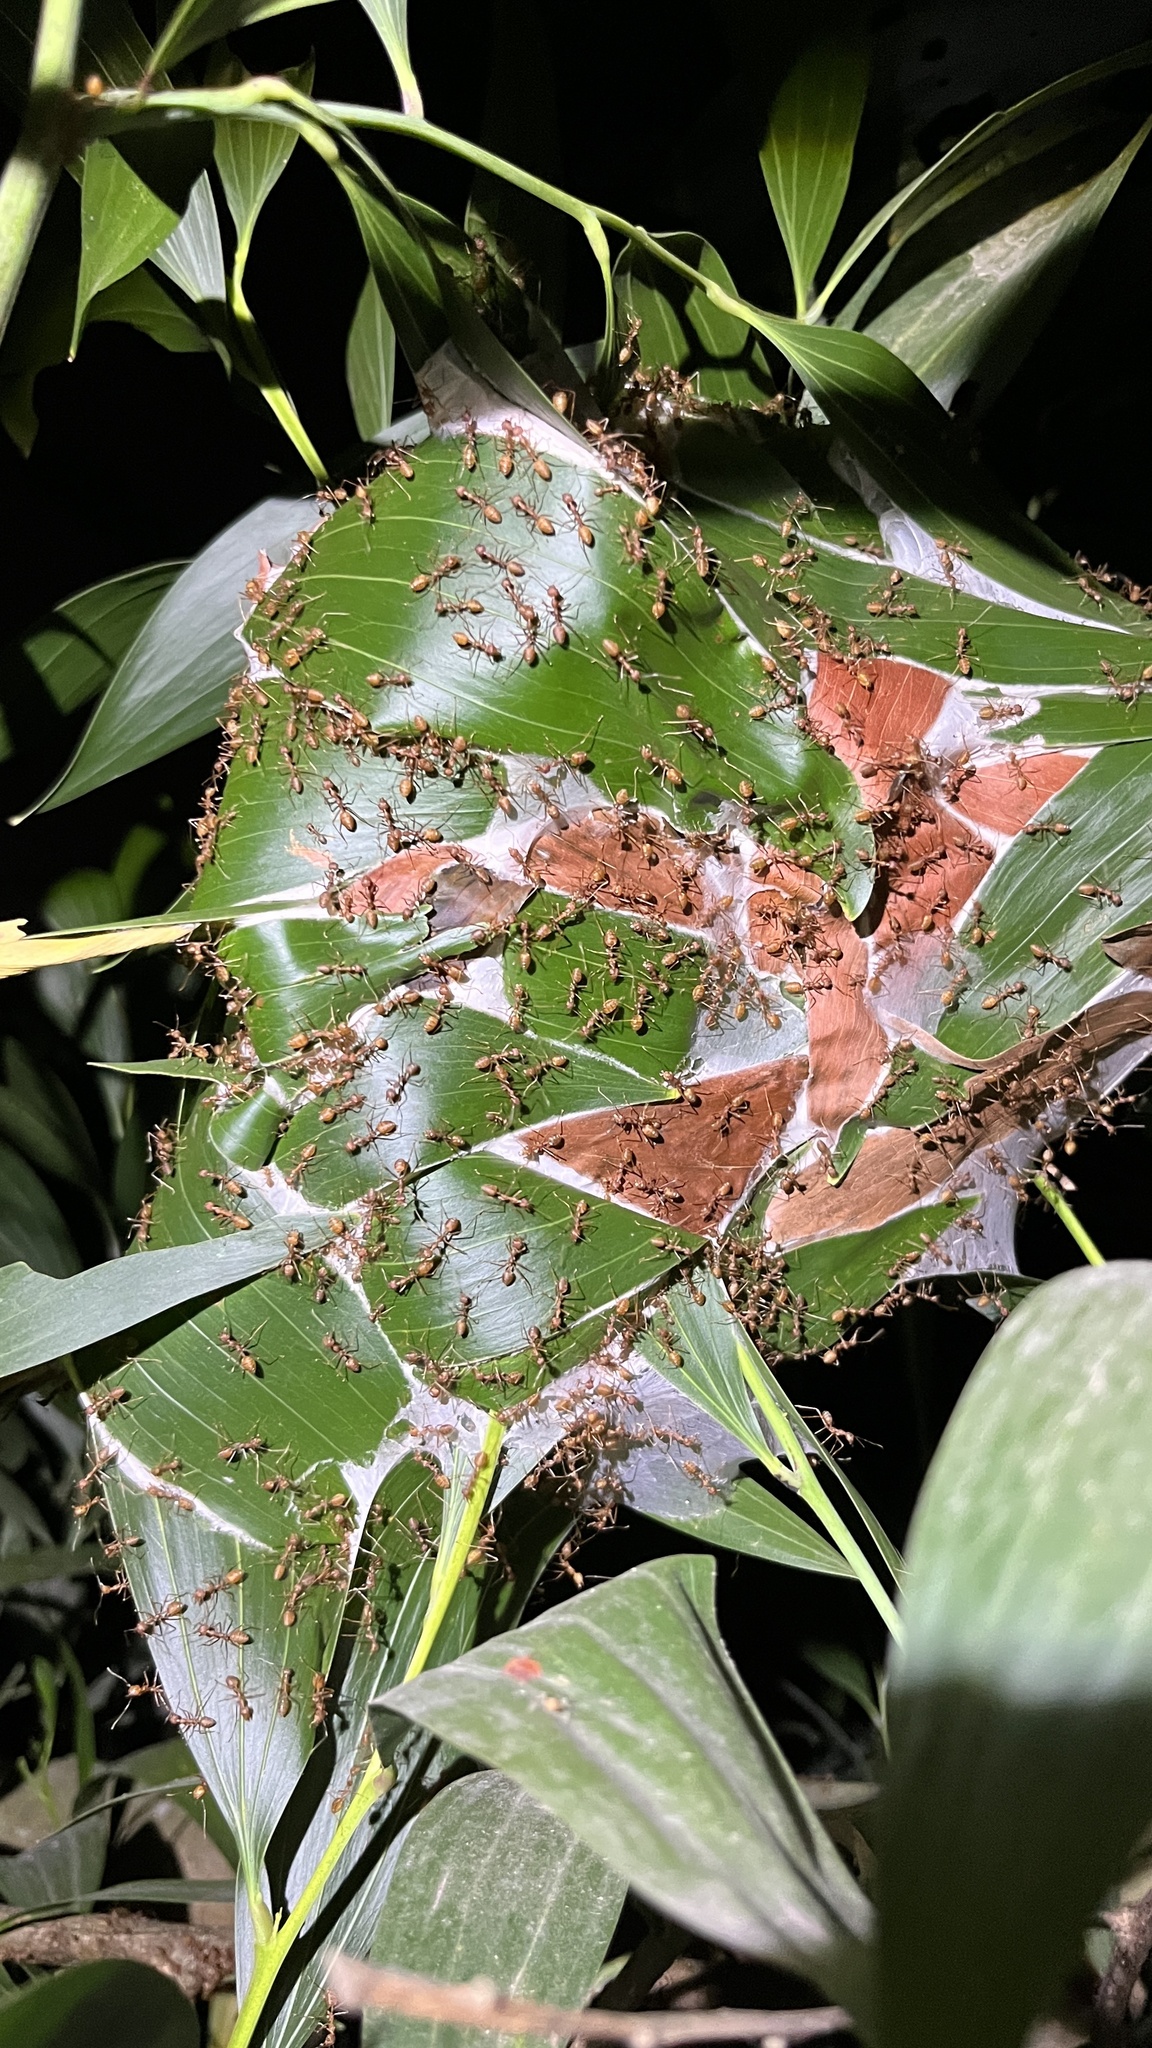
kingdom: Animalia
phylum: Arthropoda
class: Insecta
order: Hymenoptera
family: Formicidae
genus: Oecophylla
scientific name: Oecophylla smaragdina
